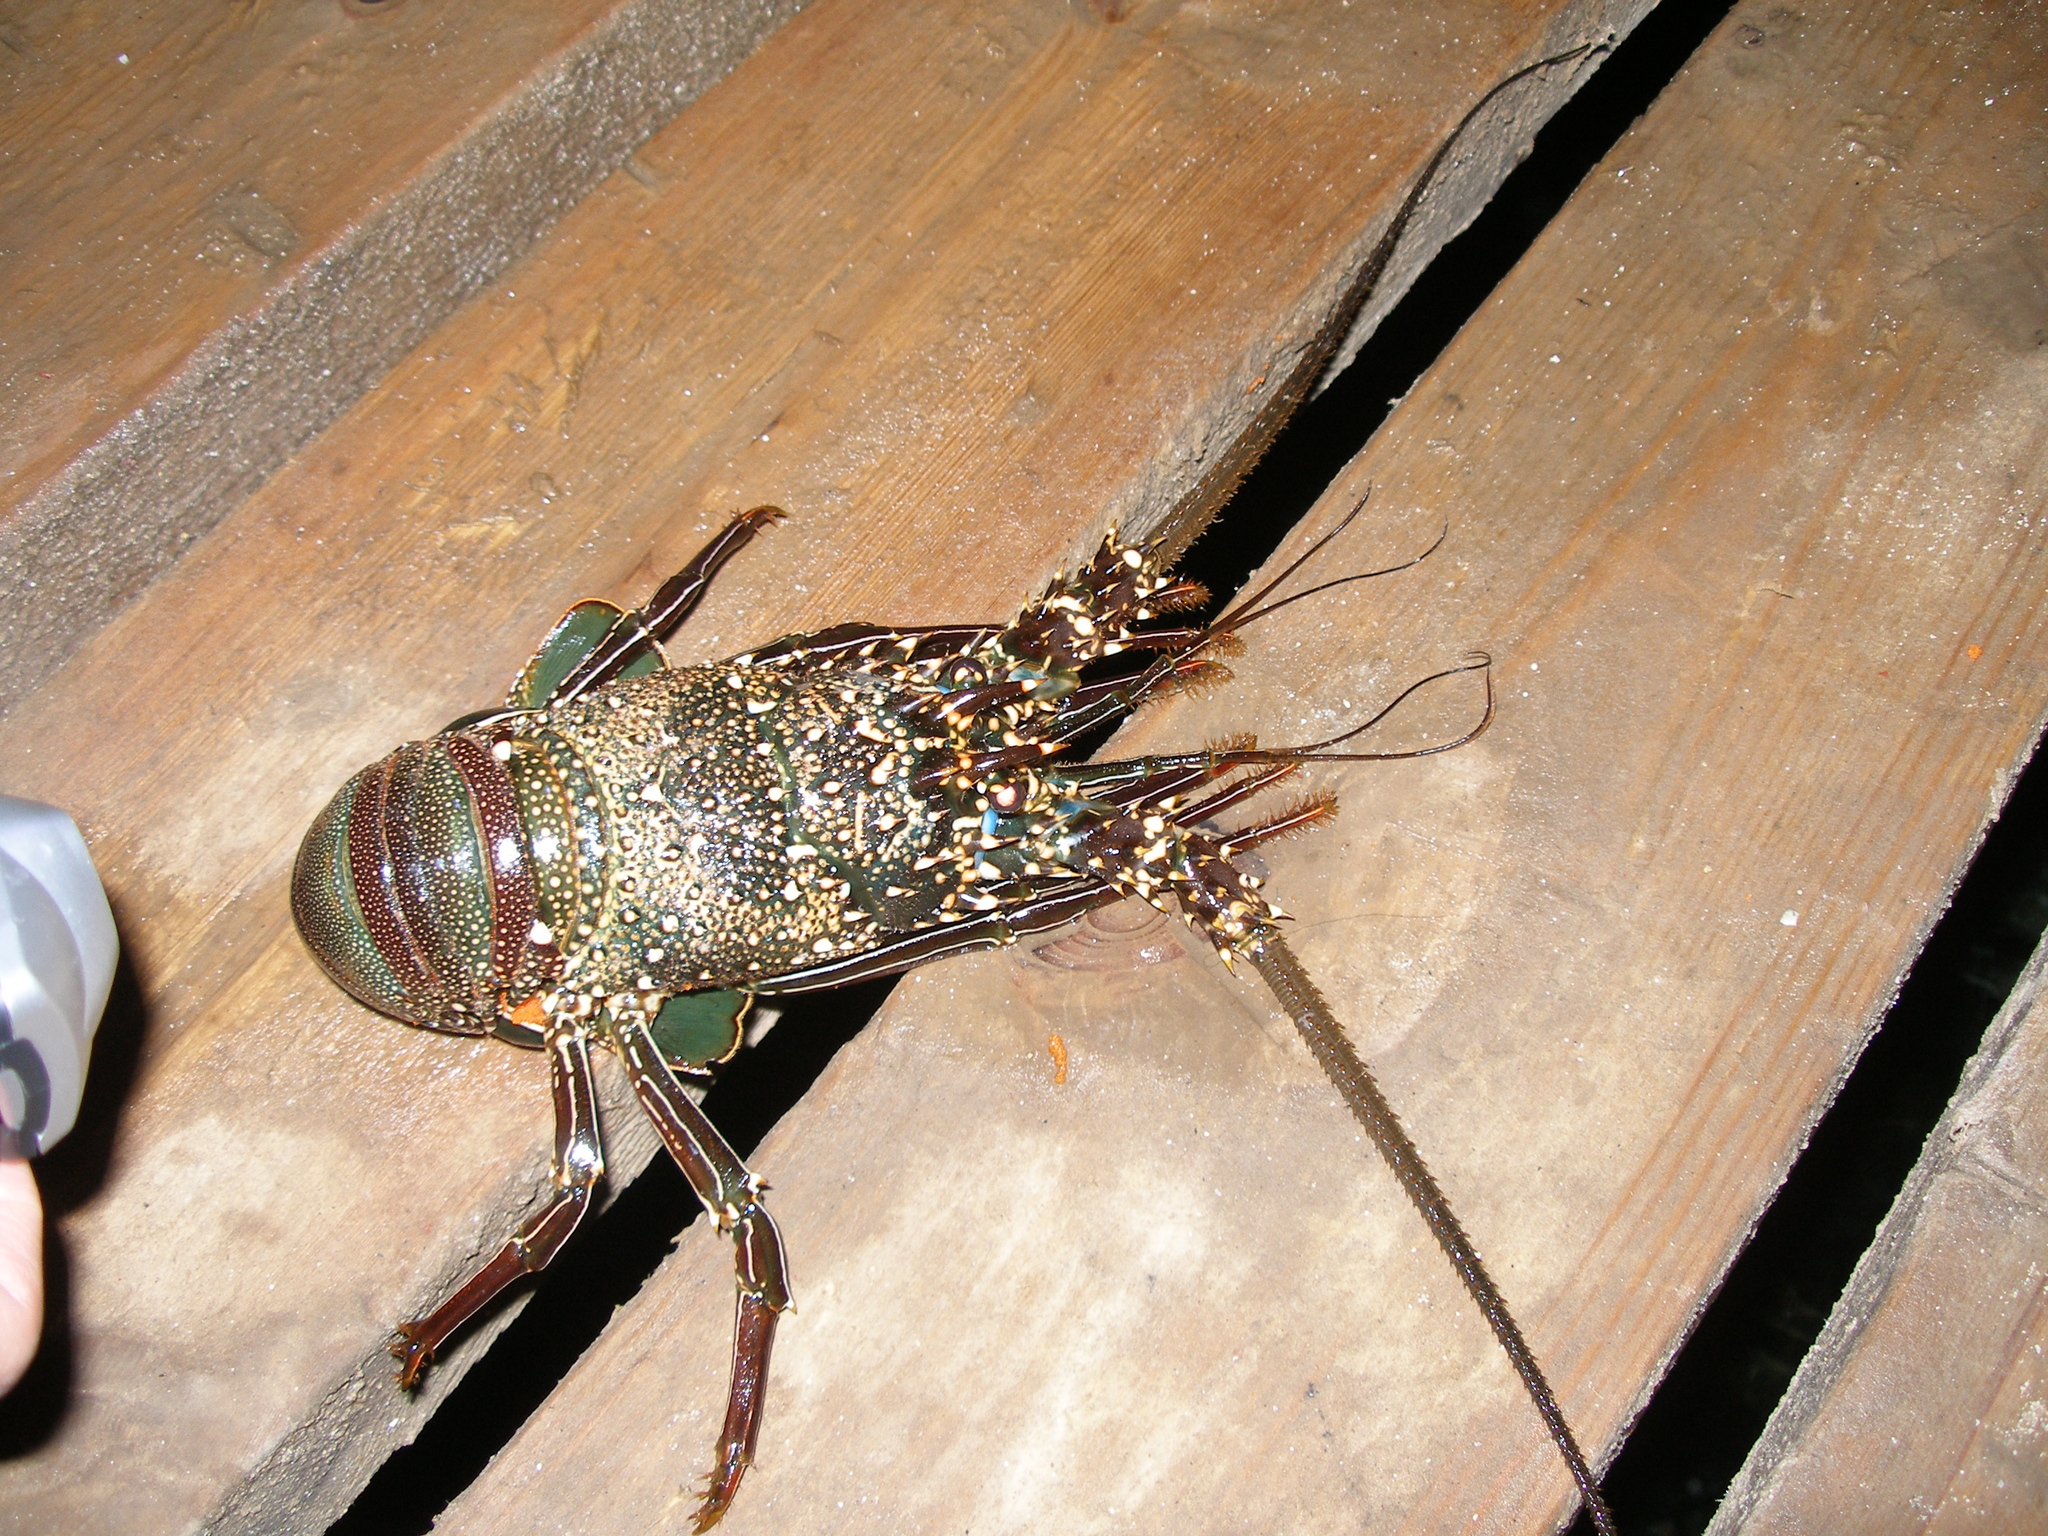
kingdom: Animalia
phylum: Arthropoda
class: Malacostraca
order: Decapoda
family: Palinuridae
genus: Panulirus
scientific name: Panulirus penicillatus
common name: Pronghorn spiny lobster
